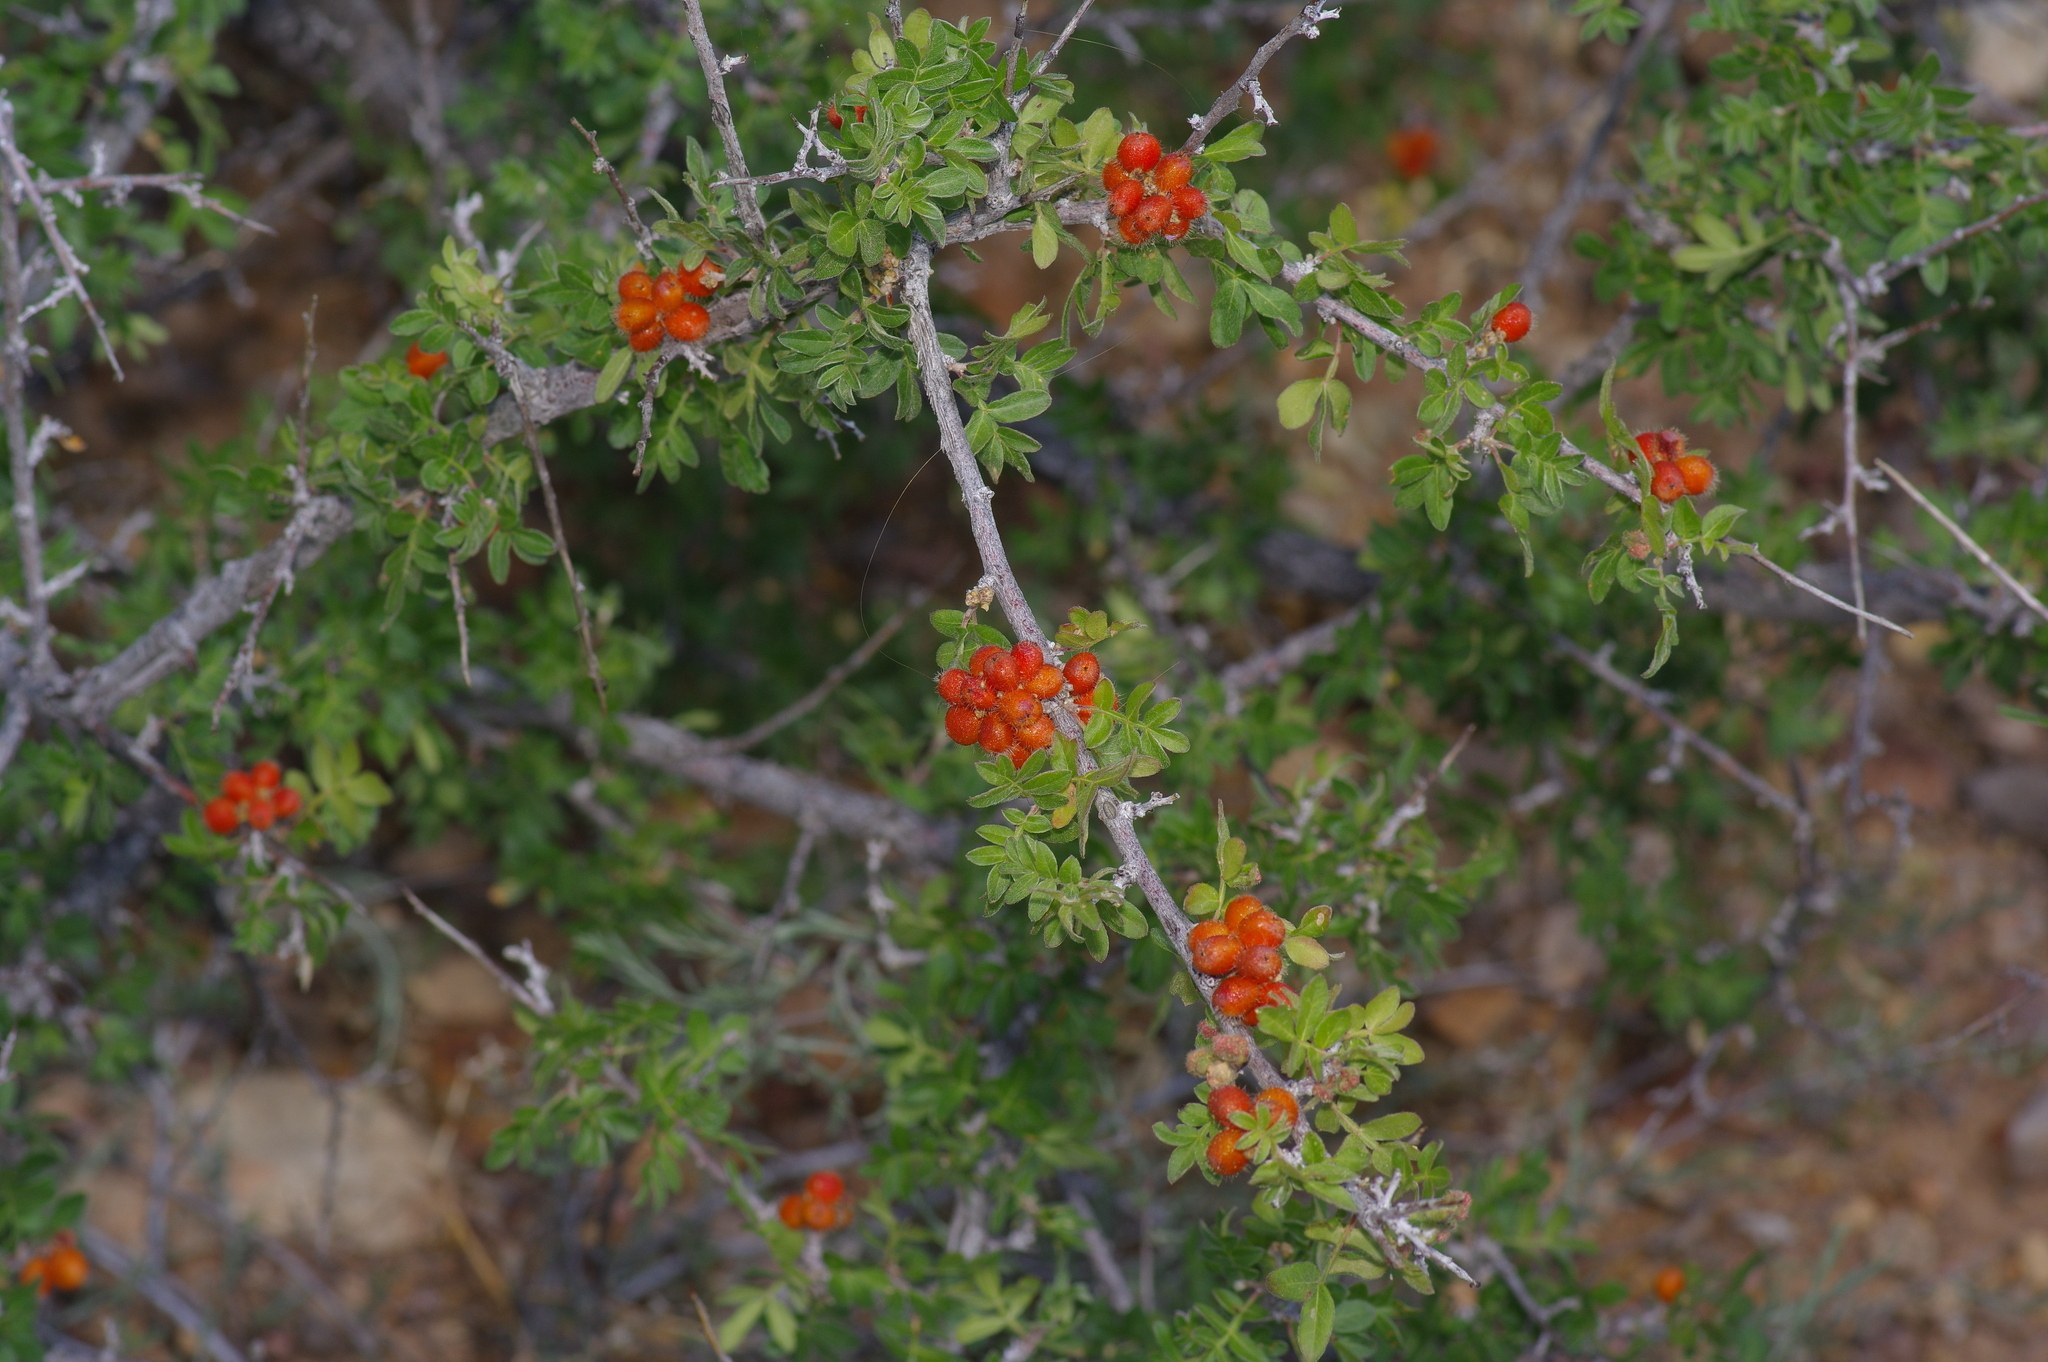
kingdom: Plantae
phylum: Tracheophyta
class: Magnoliopsida
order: Sapindales
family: Anacardiaceae
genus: Rhus
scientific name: Rhus microphylla
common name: Desert sumac
